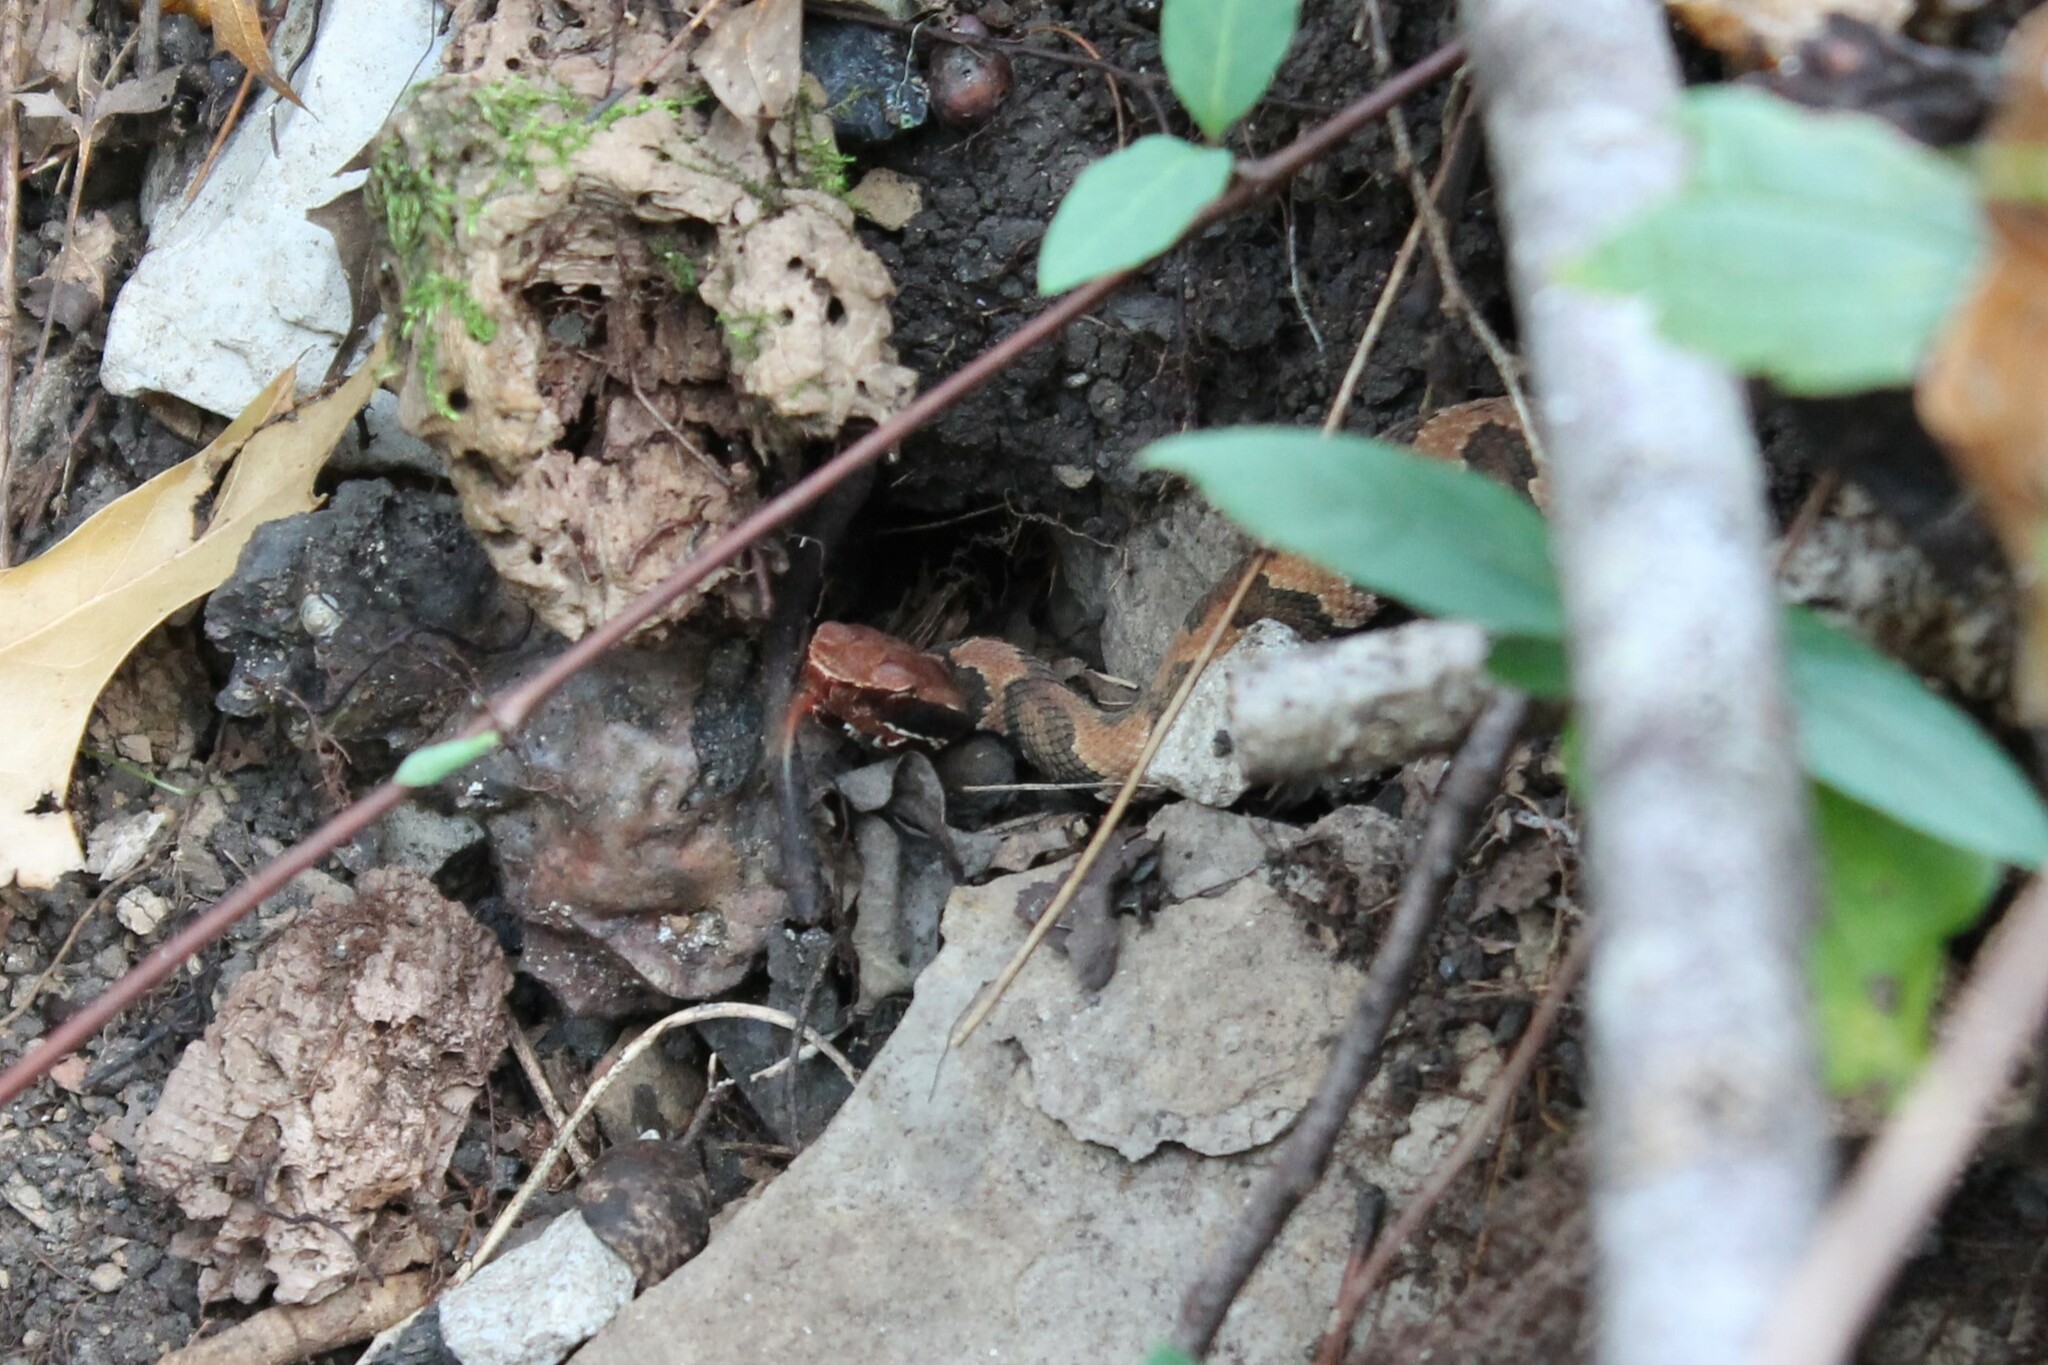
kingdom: Animalia
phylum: Chordata
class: Squamata
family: Viperidae
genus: Agkistrodon
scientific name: Agkistrodon piscivorus
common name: Cottonmouth
